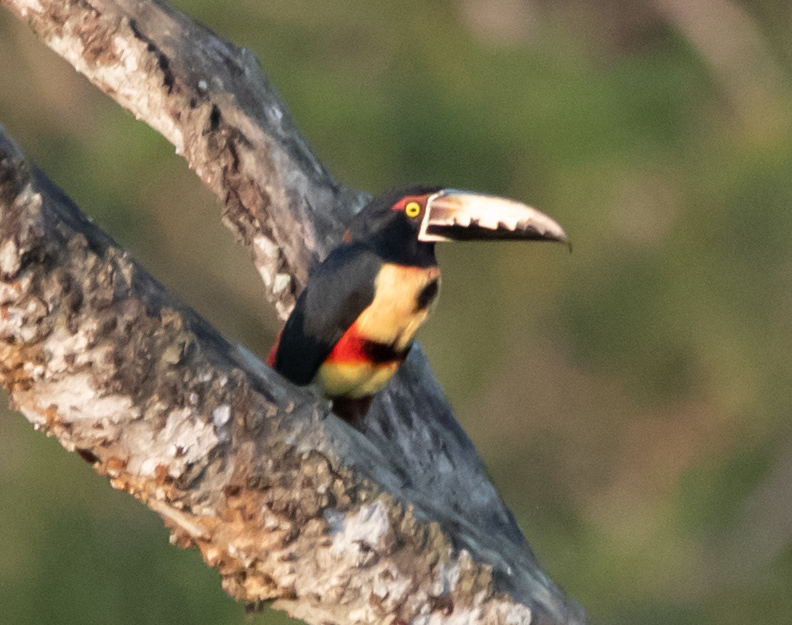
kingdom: Animalia
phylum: Chordata
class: Aves
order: Piciformes
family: Ramphastidae
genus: Pteroglossus
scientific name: Pteroglossus torquatus
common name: Collared aracari
